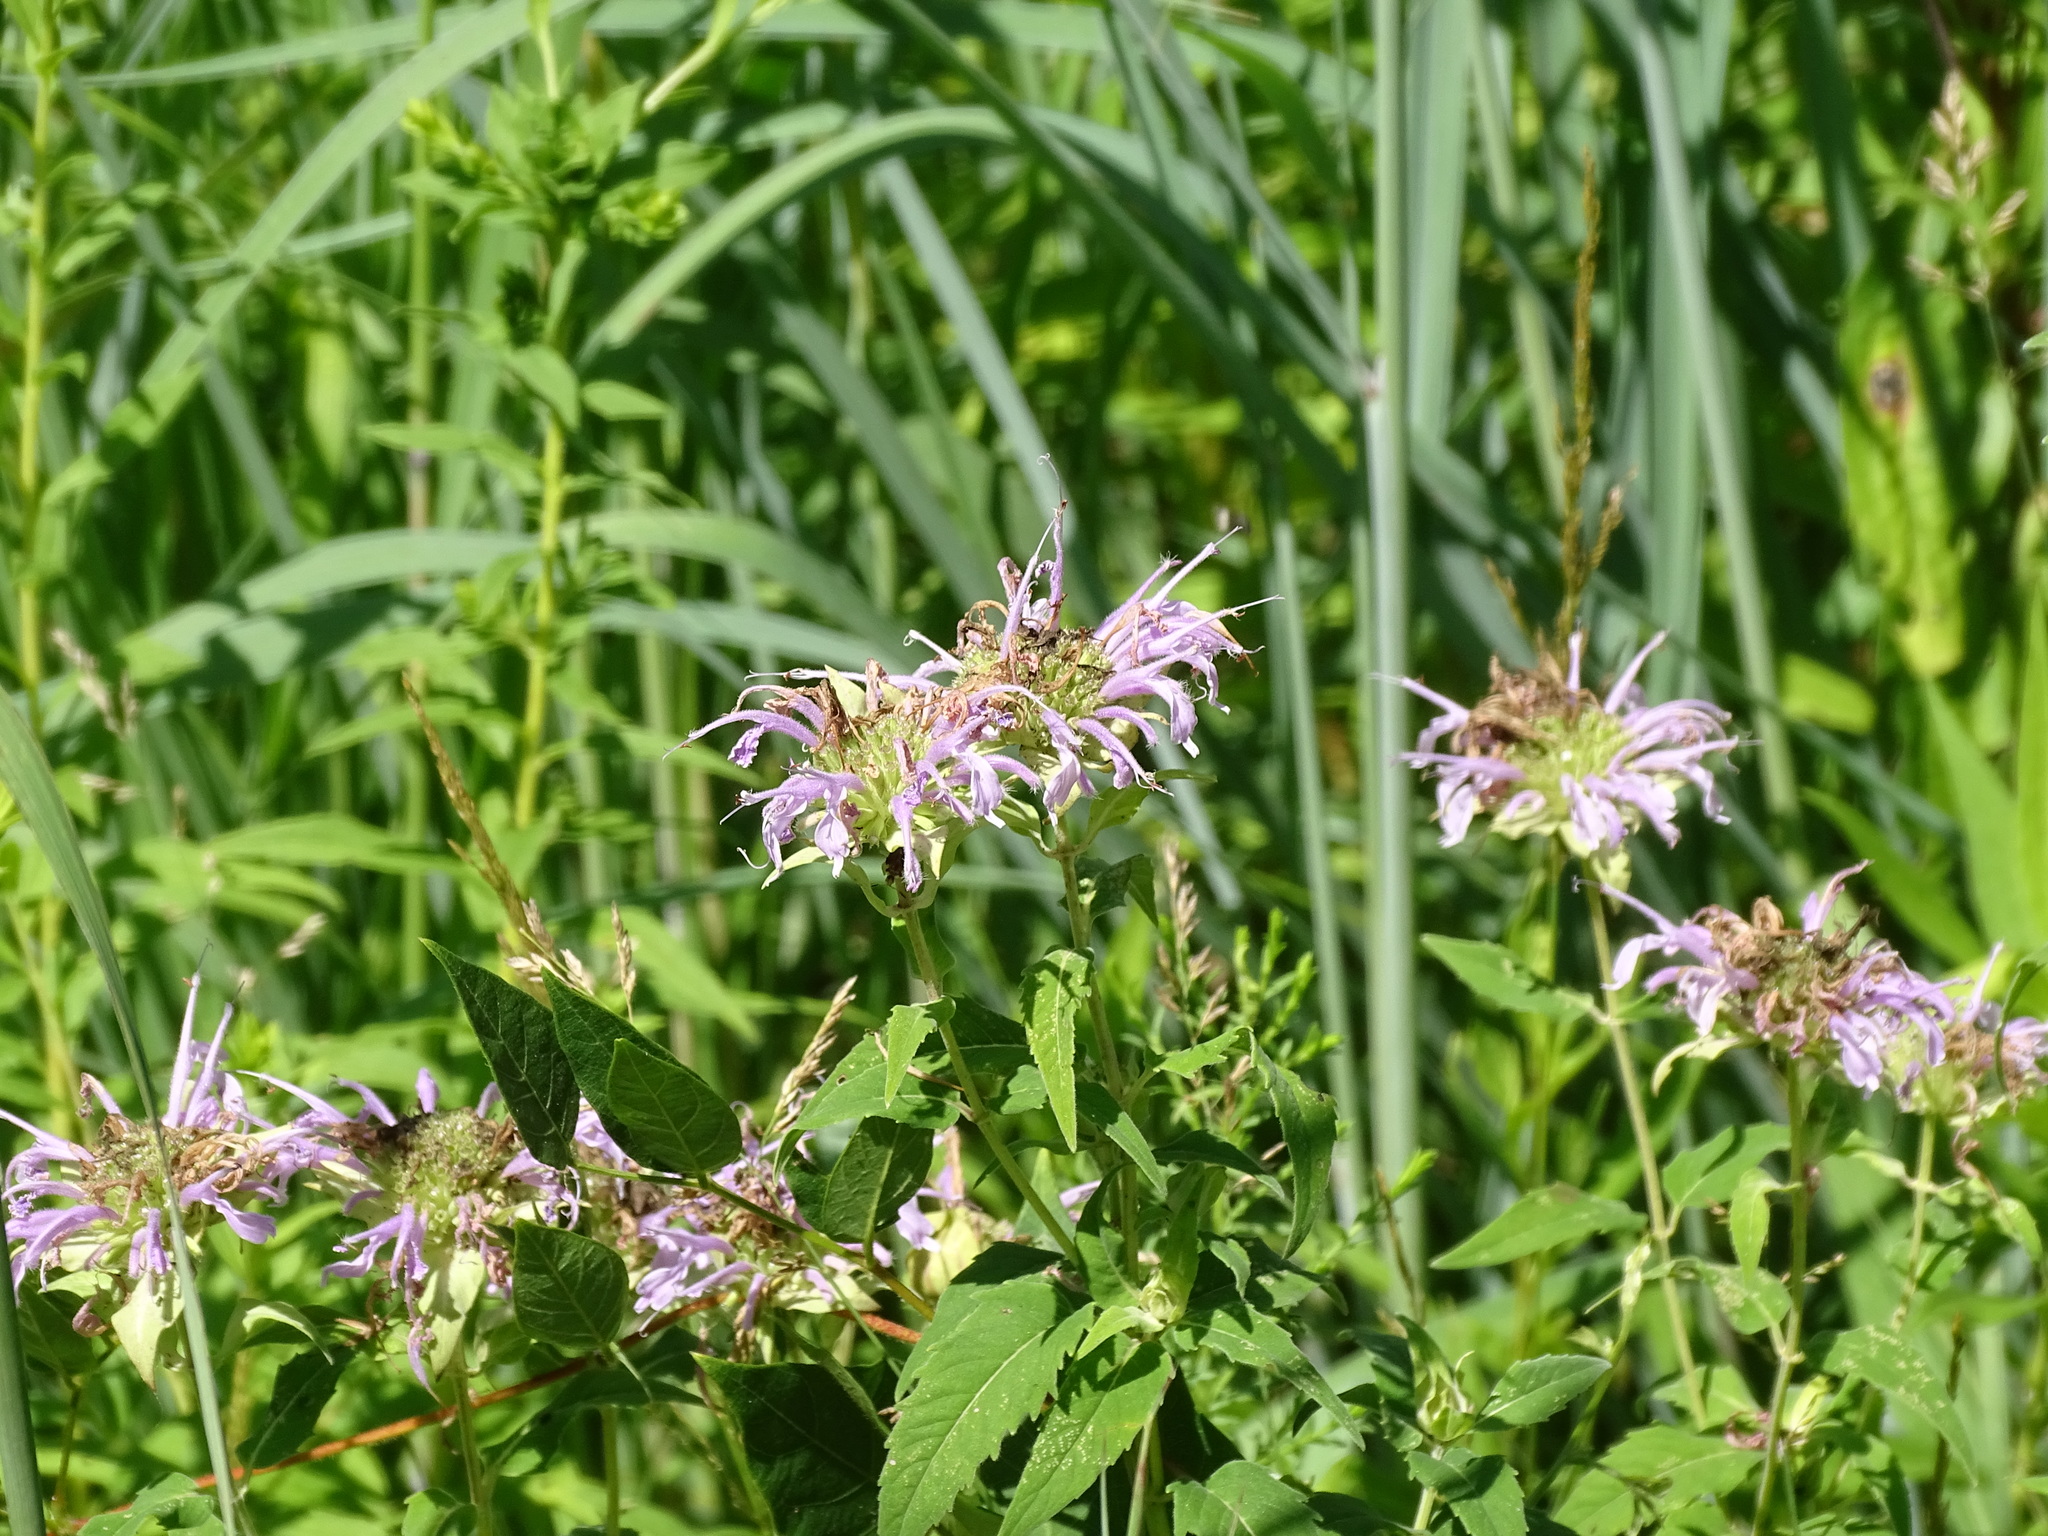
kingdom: Plantae
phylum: Tracheophyta
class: Magnoliopsida
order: Lamiales
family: Lamiaceae
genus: Monarda
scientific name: Monarda fistulosa
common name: Purple beebalm
